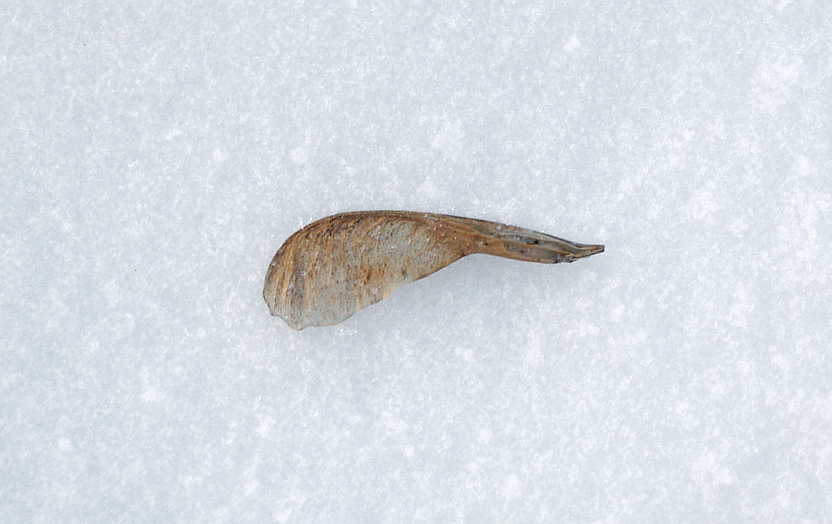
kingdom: Plantae
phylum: Tracheophyta
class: Magnoliopsida
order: Sapindales
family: Sapindaceae
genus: Acer
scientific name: Acer negundo
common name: Ashleaf maple
